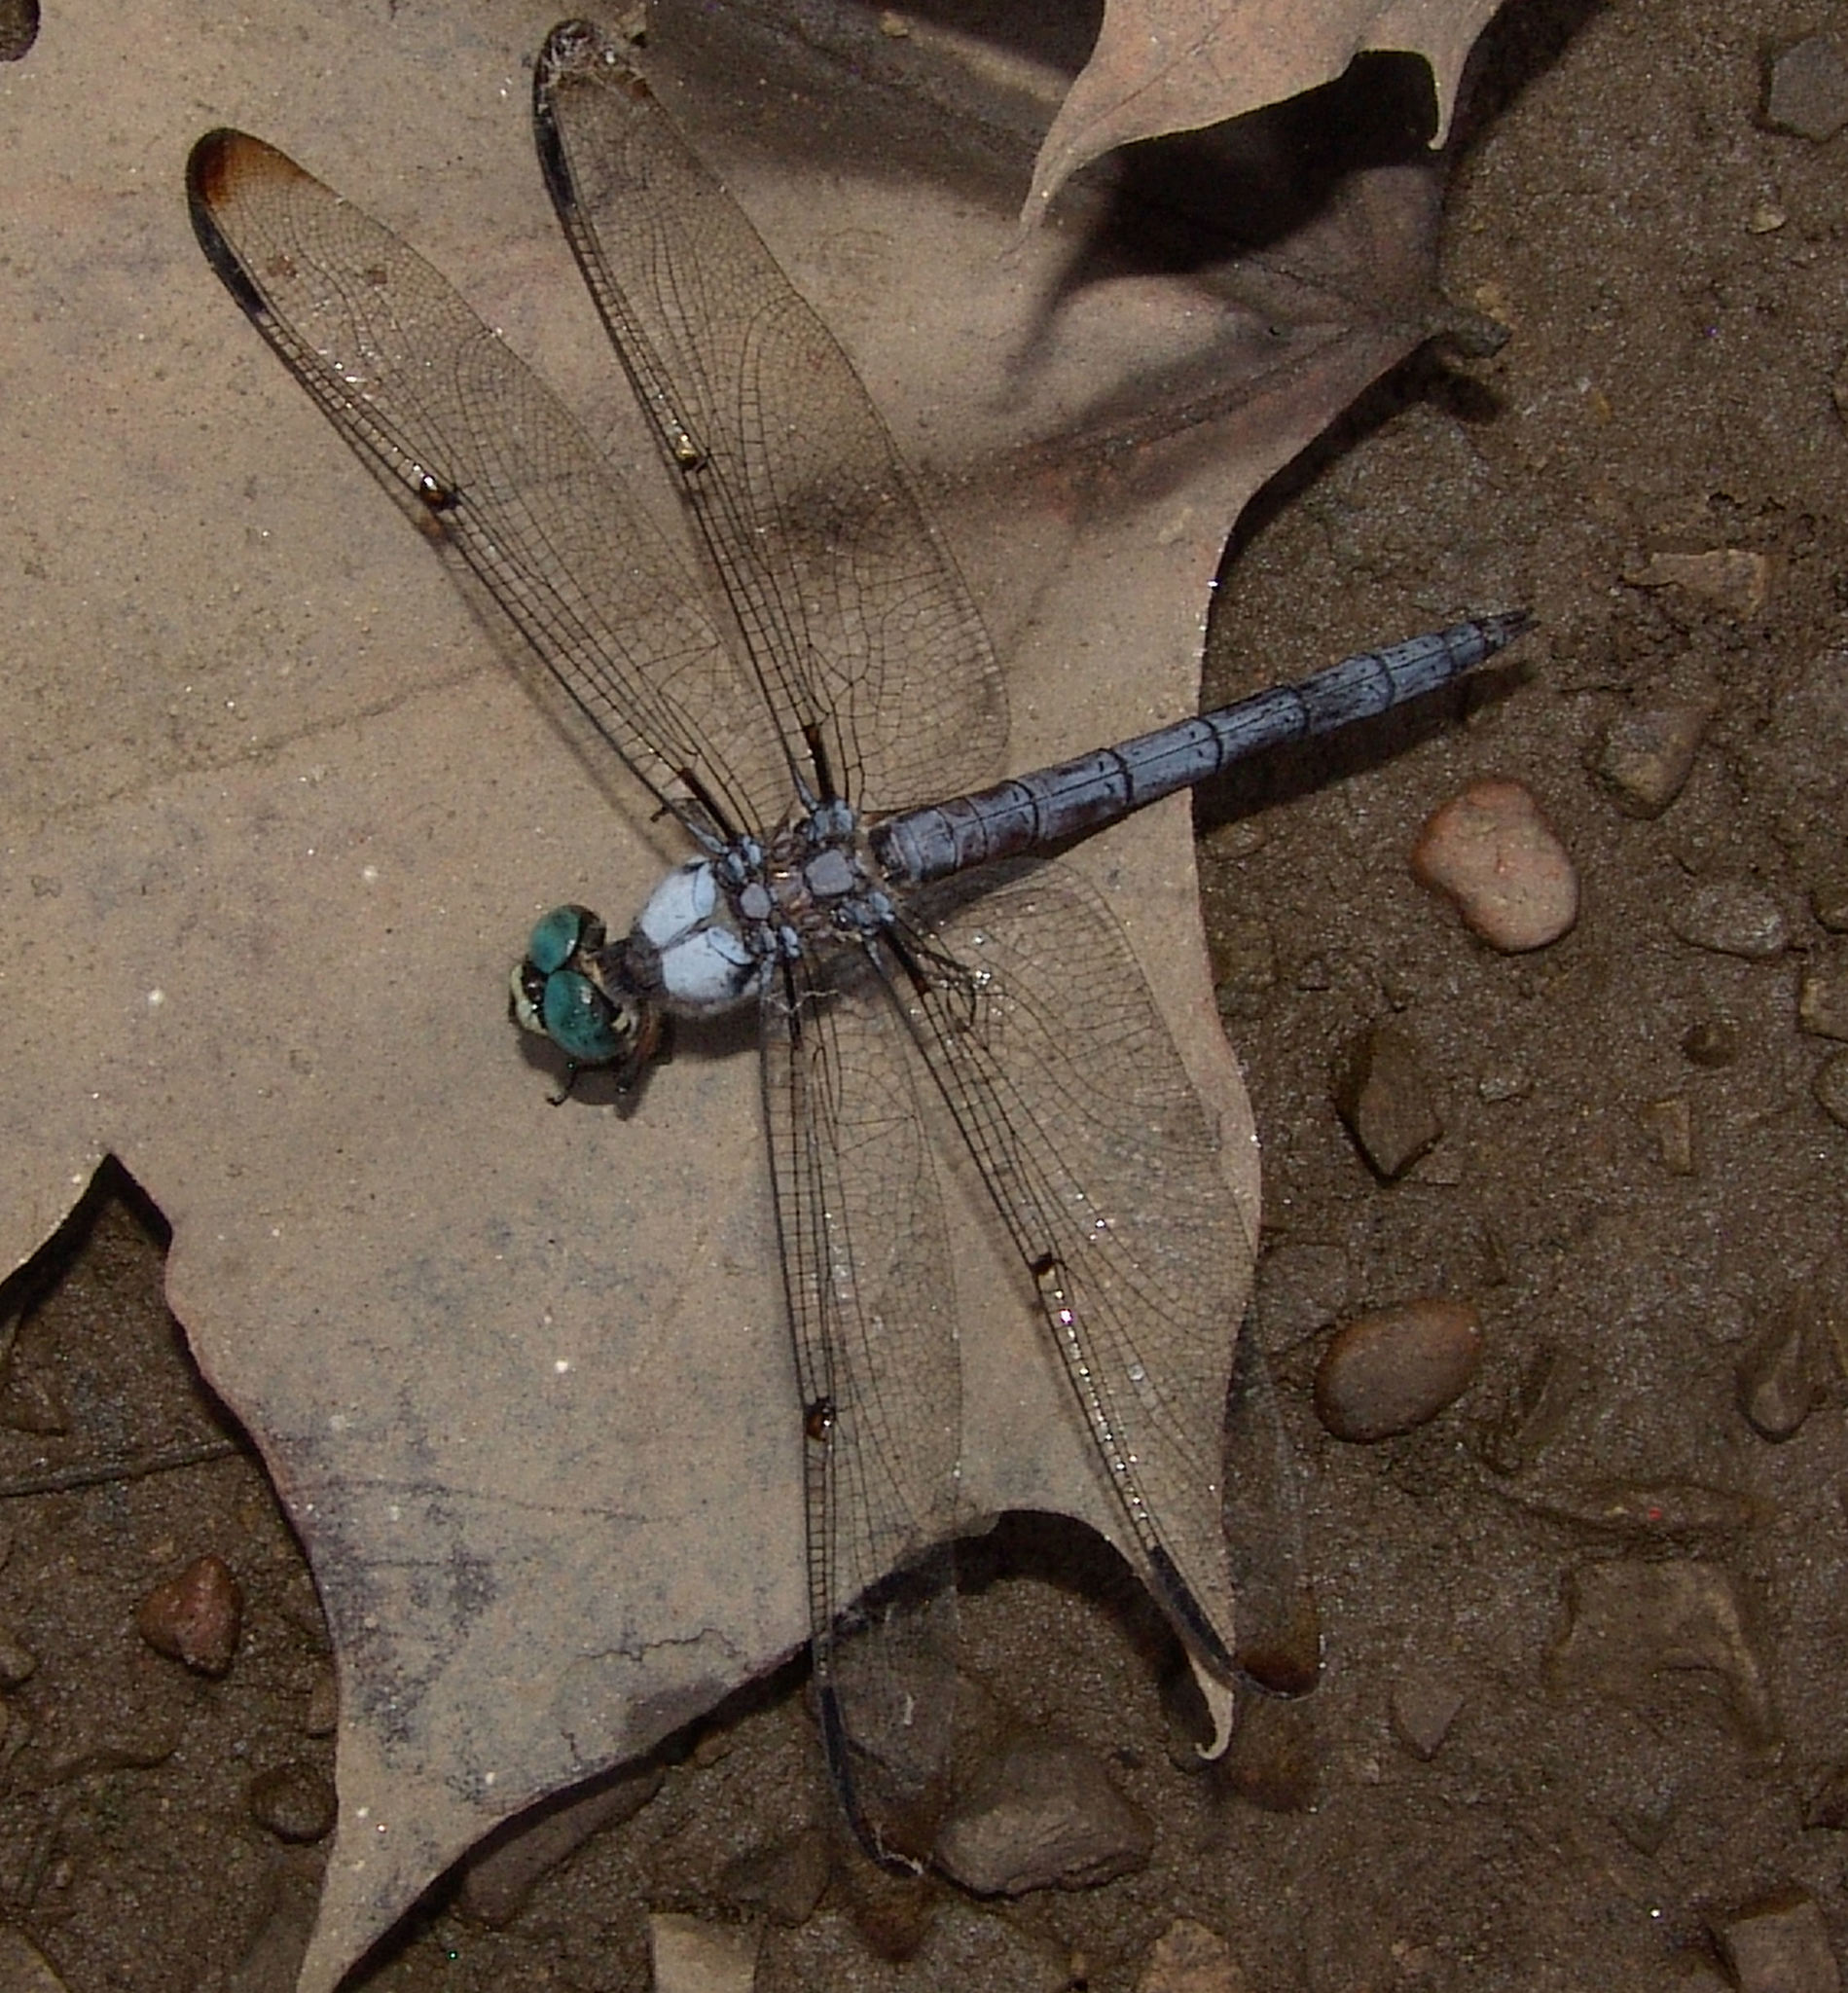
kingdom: Animalia
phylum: Arthropoda
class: Insecta
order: Odonata
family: Libellulidae
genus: Libellula
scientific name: Libellula vibrans
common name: Great blue skimmer
